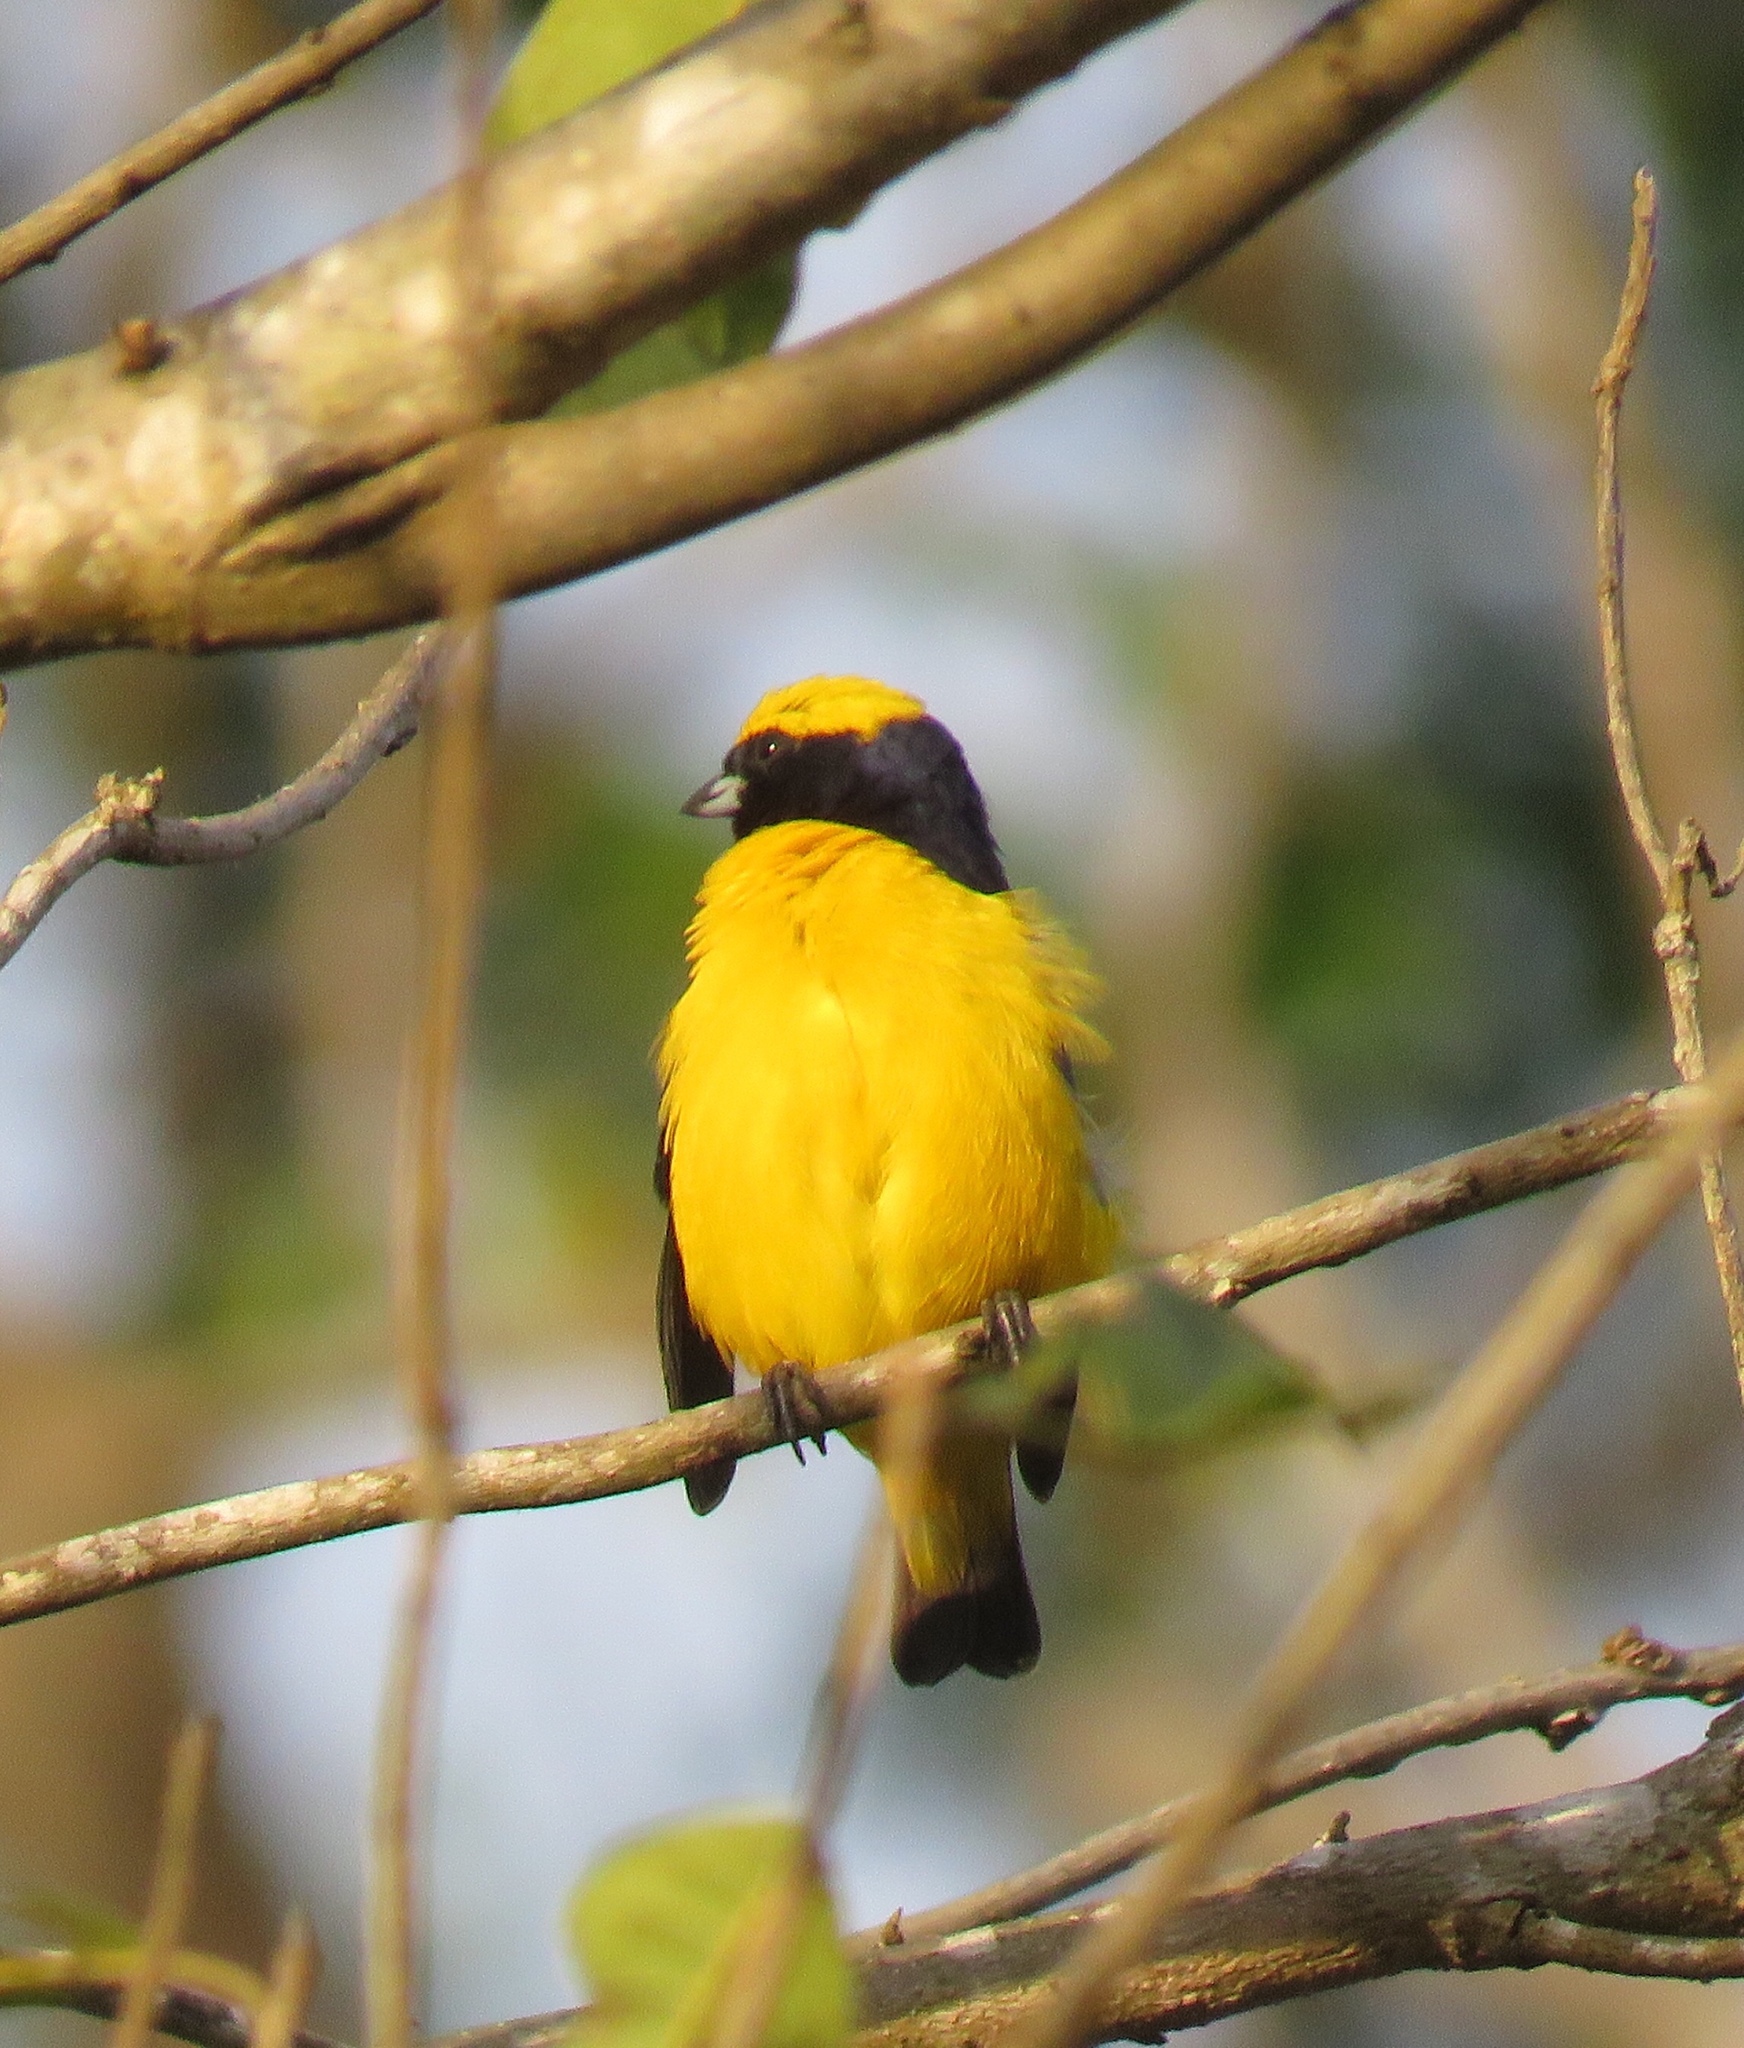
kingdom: Animalia
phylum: Chordata
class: Aves
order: Passeriformes
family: Fringillidae
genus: Euphonia
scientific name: Euphonia luteicapilla
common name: Yellow-crowned euphonia
